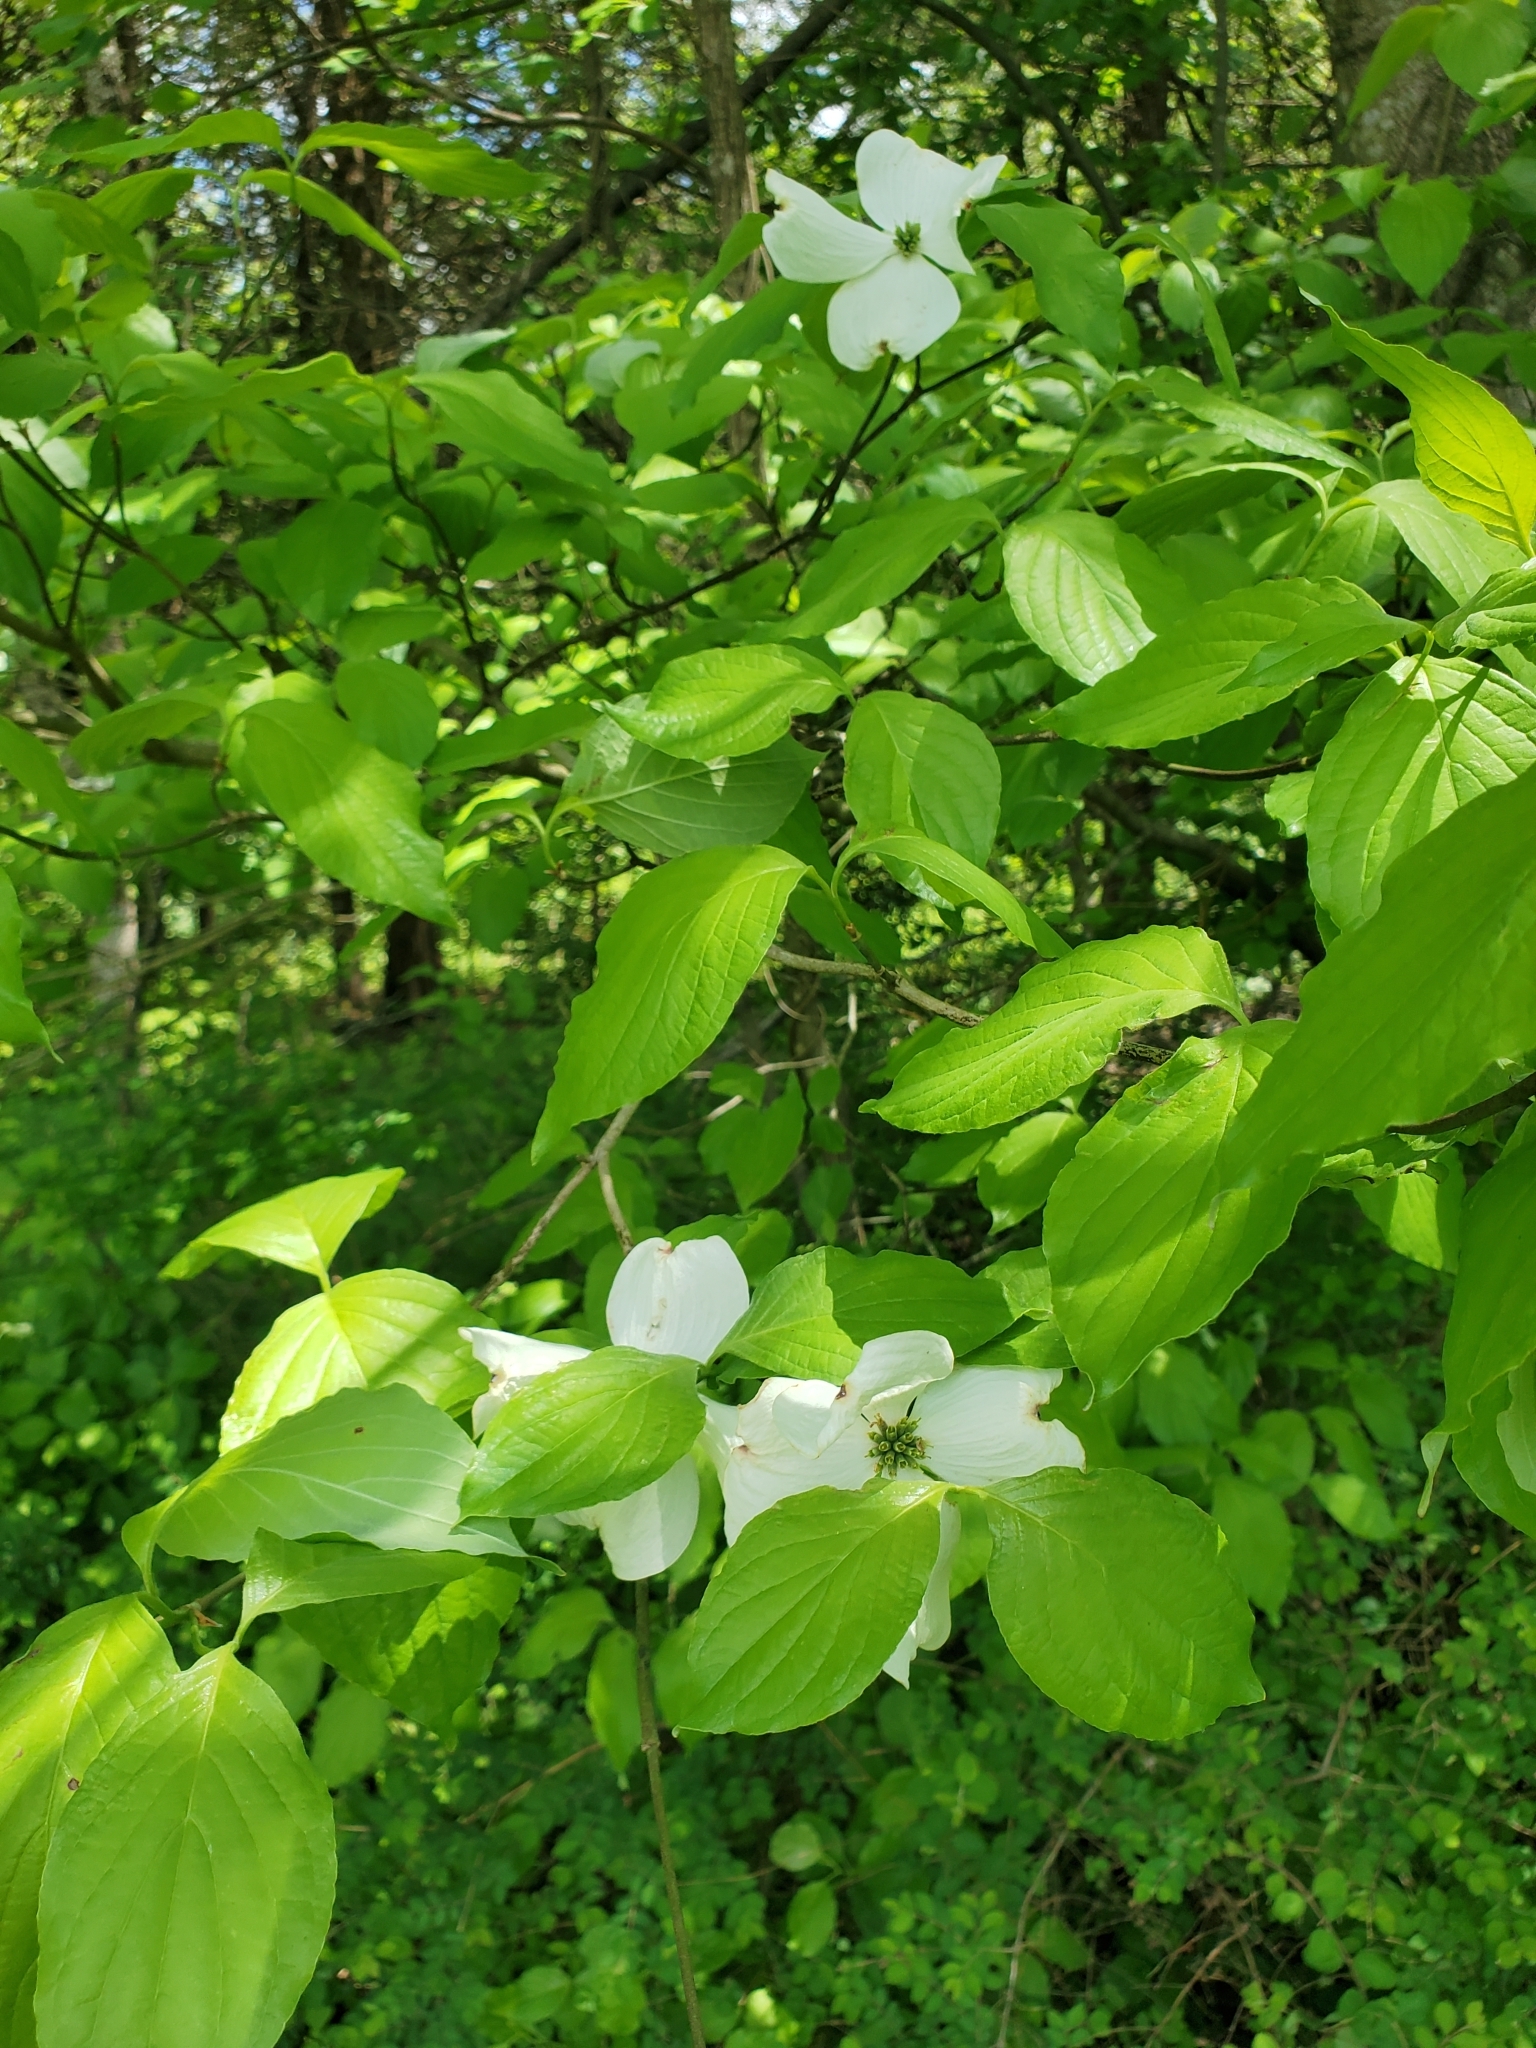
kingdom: Plantae
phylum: Tracheophyta
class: Magnoliopsida
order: Cornales
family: Cornaceae
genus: Cornus
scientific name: Cornus florida
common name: Flowering dogwood
